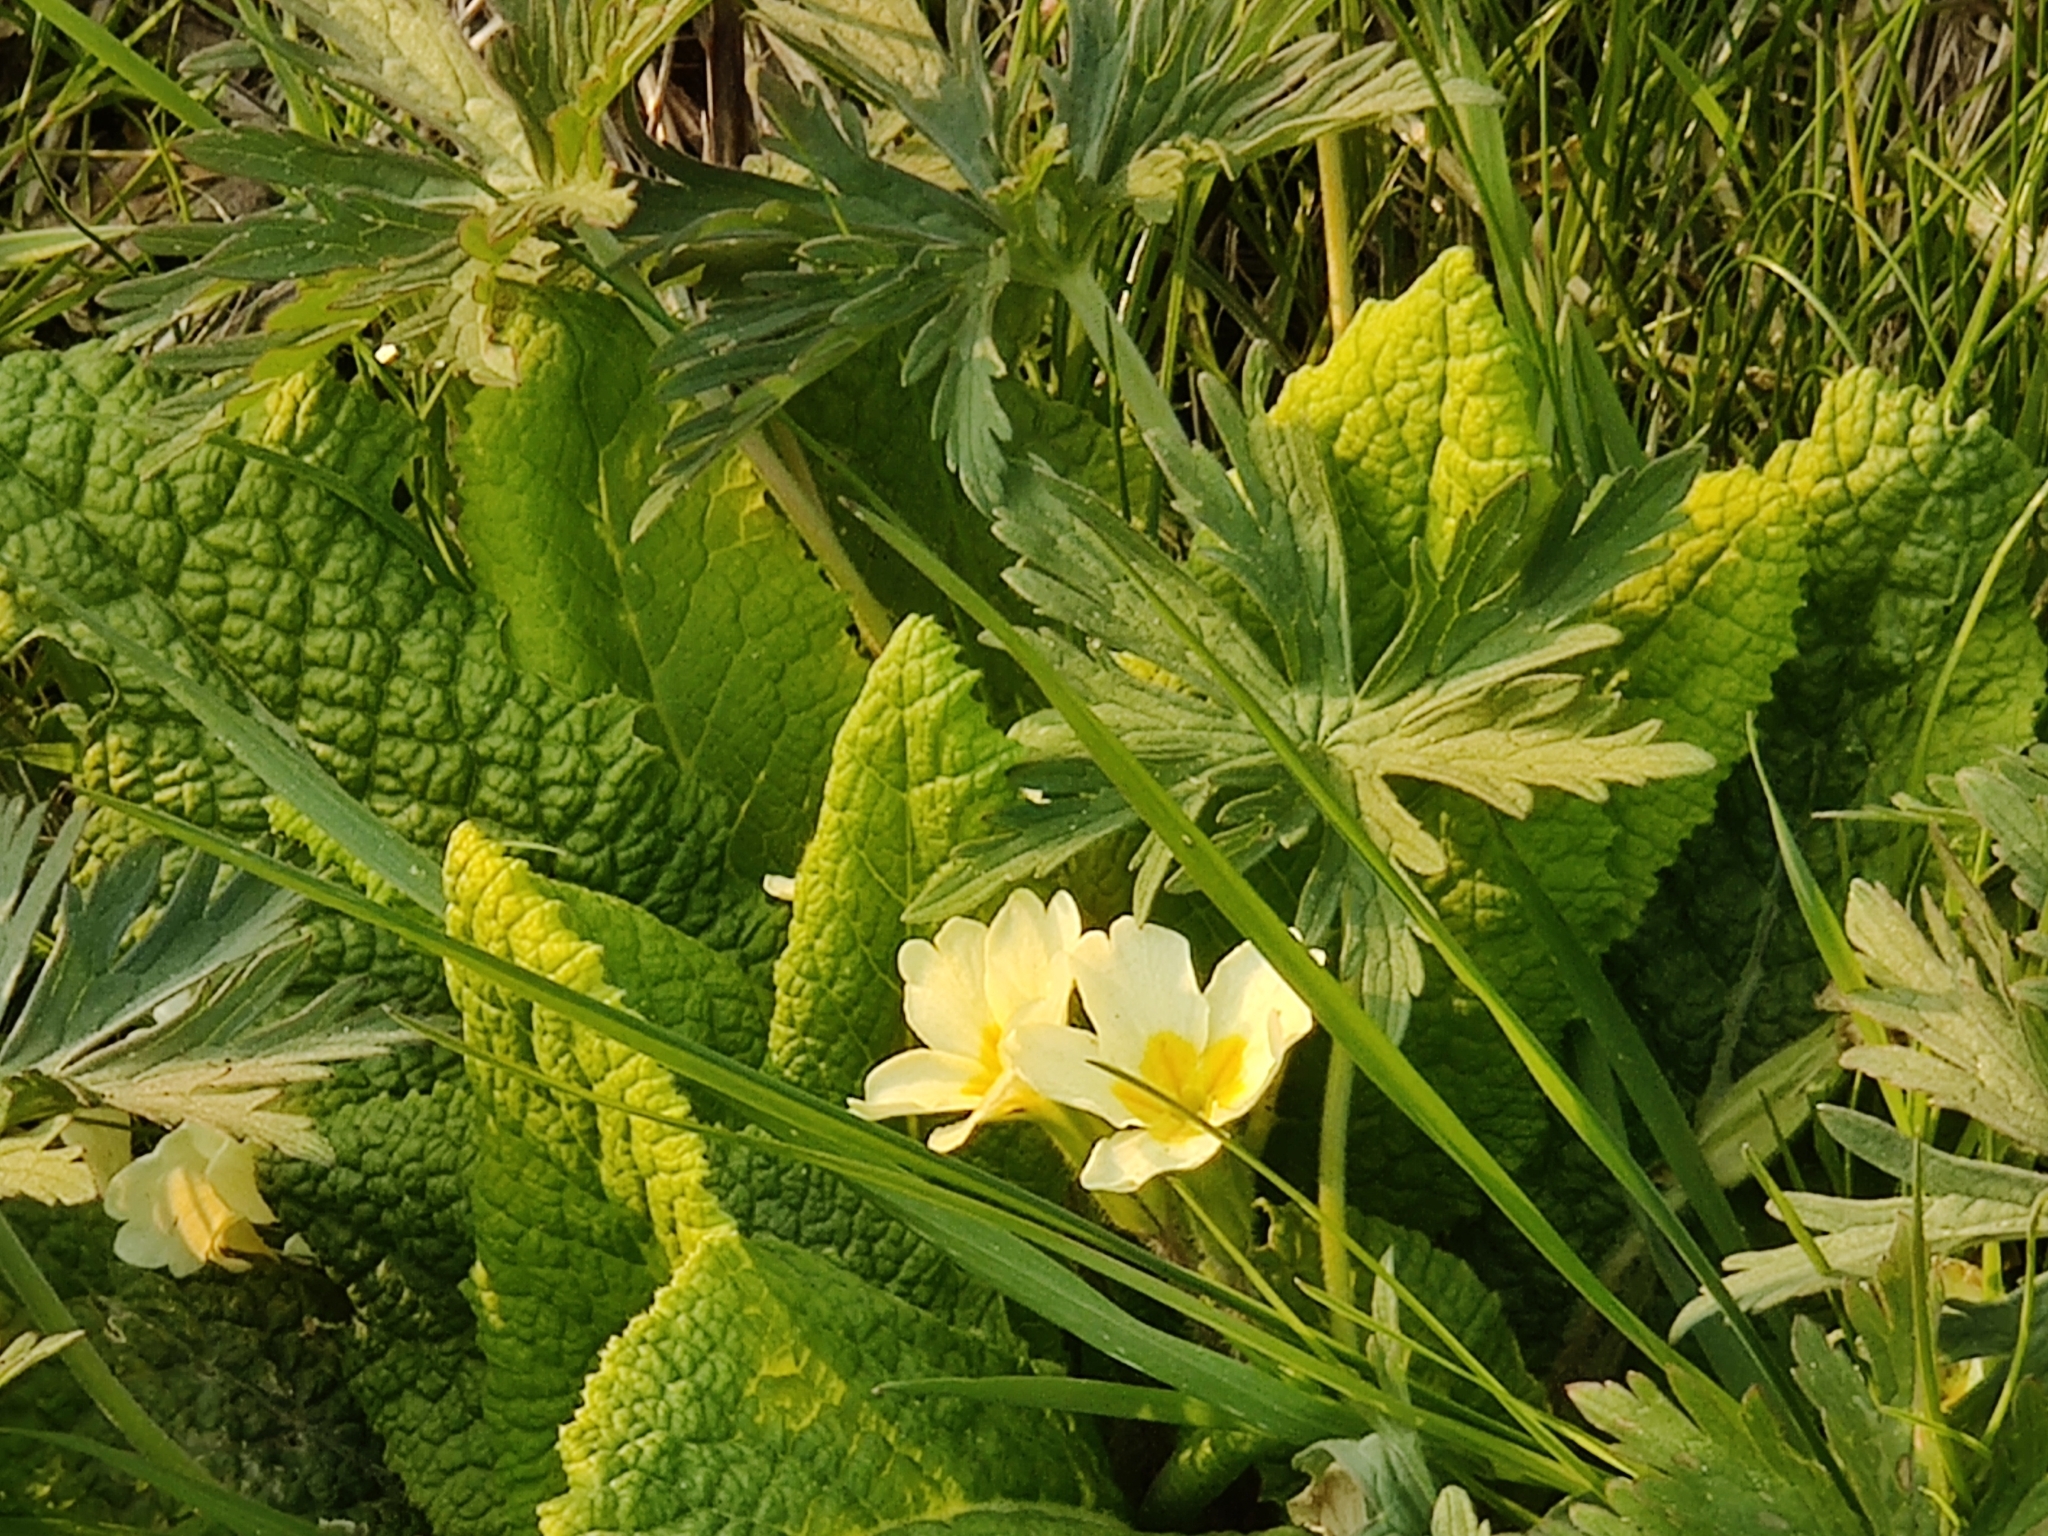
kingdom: Plantae
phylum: Tracheophyta
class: Magnoliopsida
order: Ericales
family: Primulaceae
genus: Primula
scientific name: Primula vulgaris
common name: Primrose
